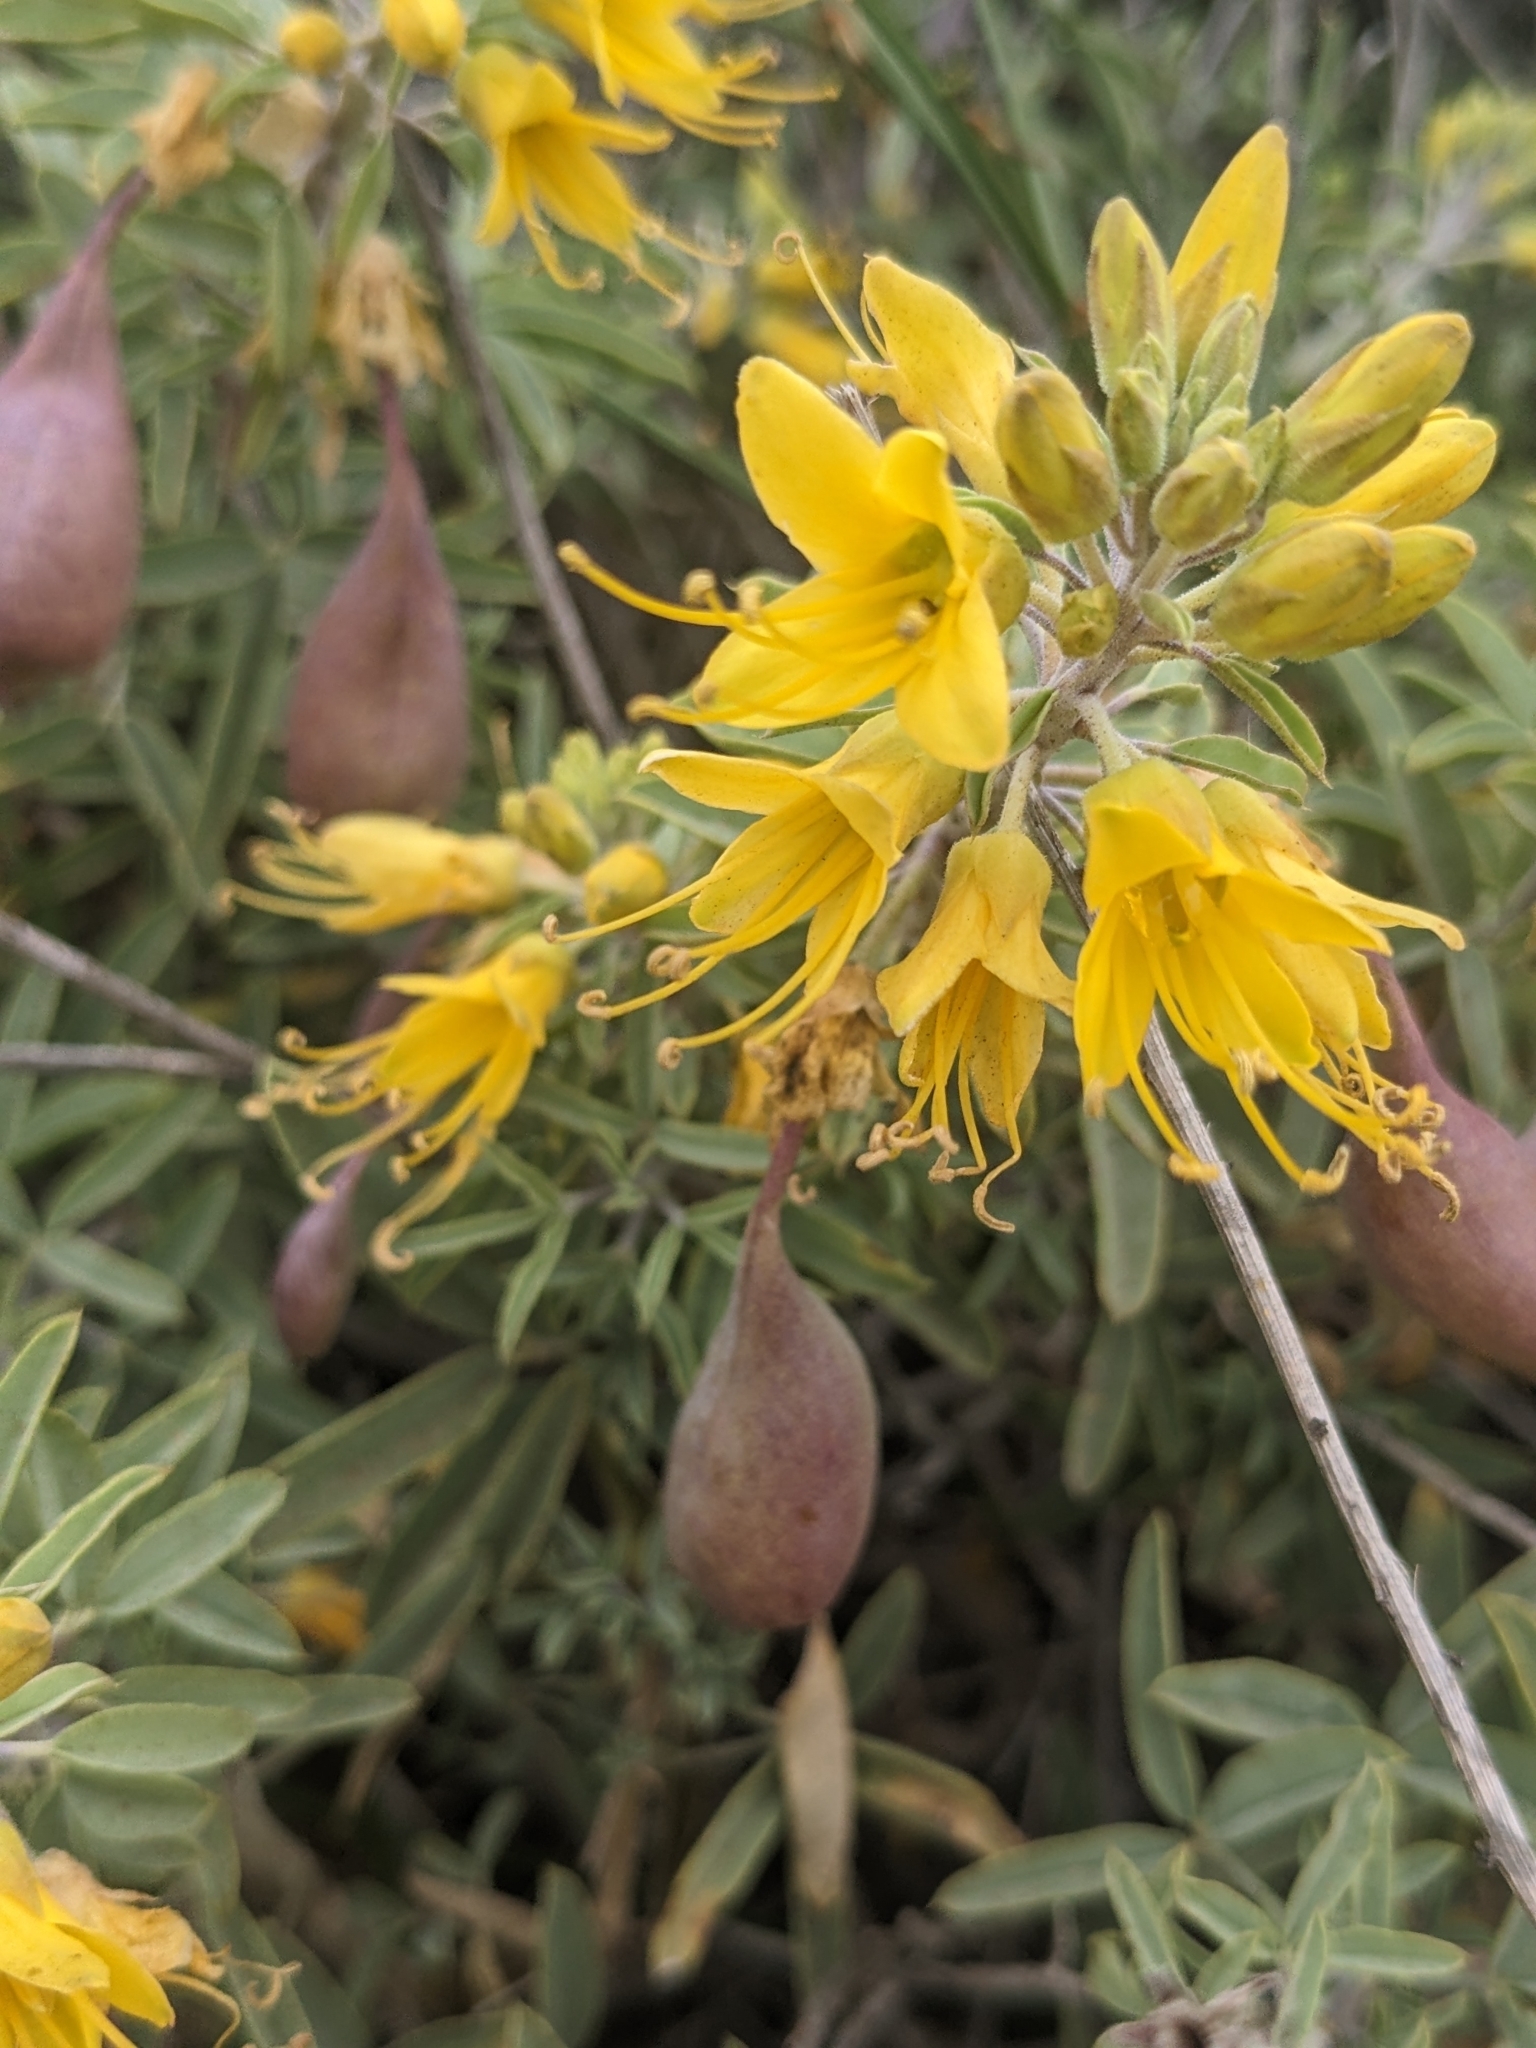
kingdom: Plantae
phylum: Tracheophyta
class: Magnoliopsida
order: Brassicales
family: Cleomaceae
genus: Cleomella
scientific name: Cleomella arborea
